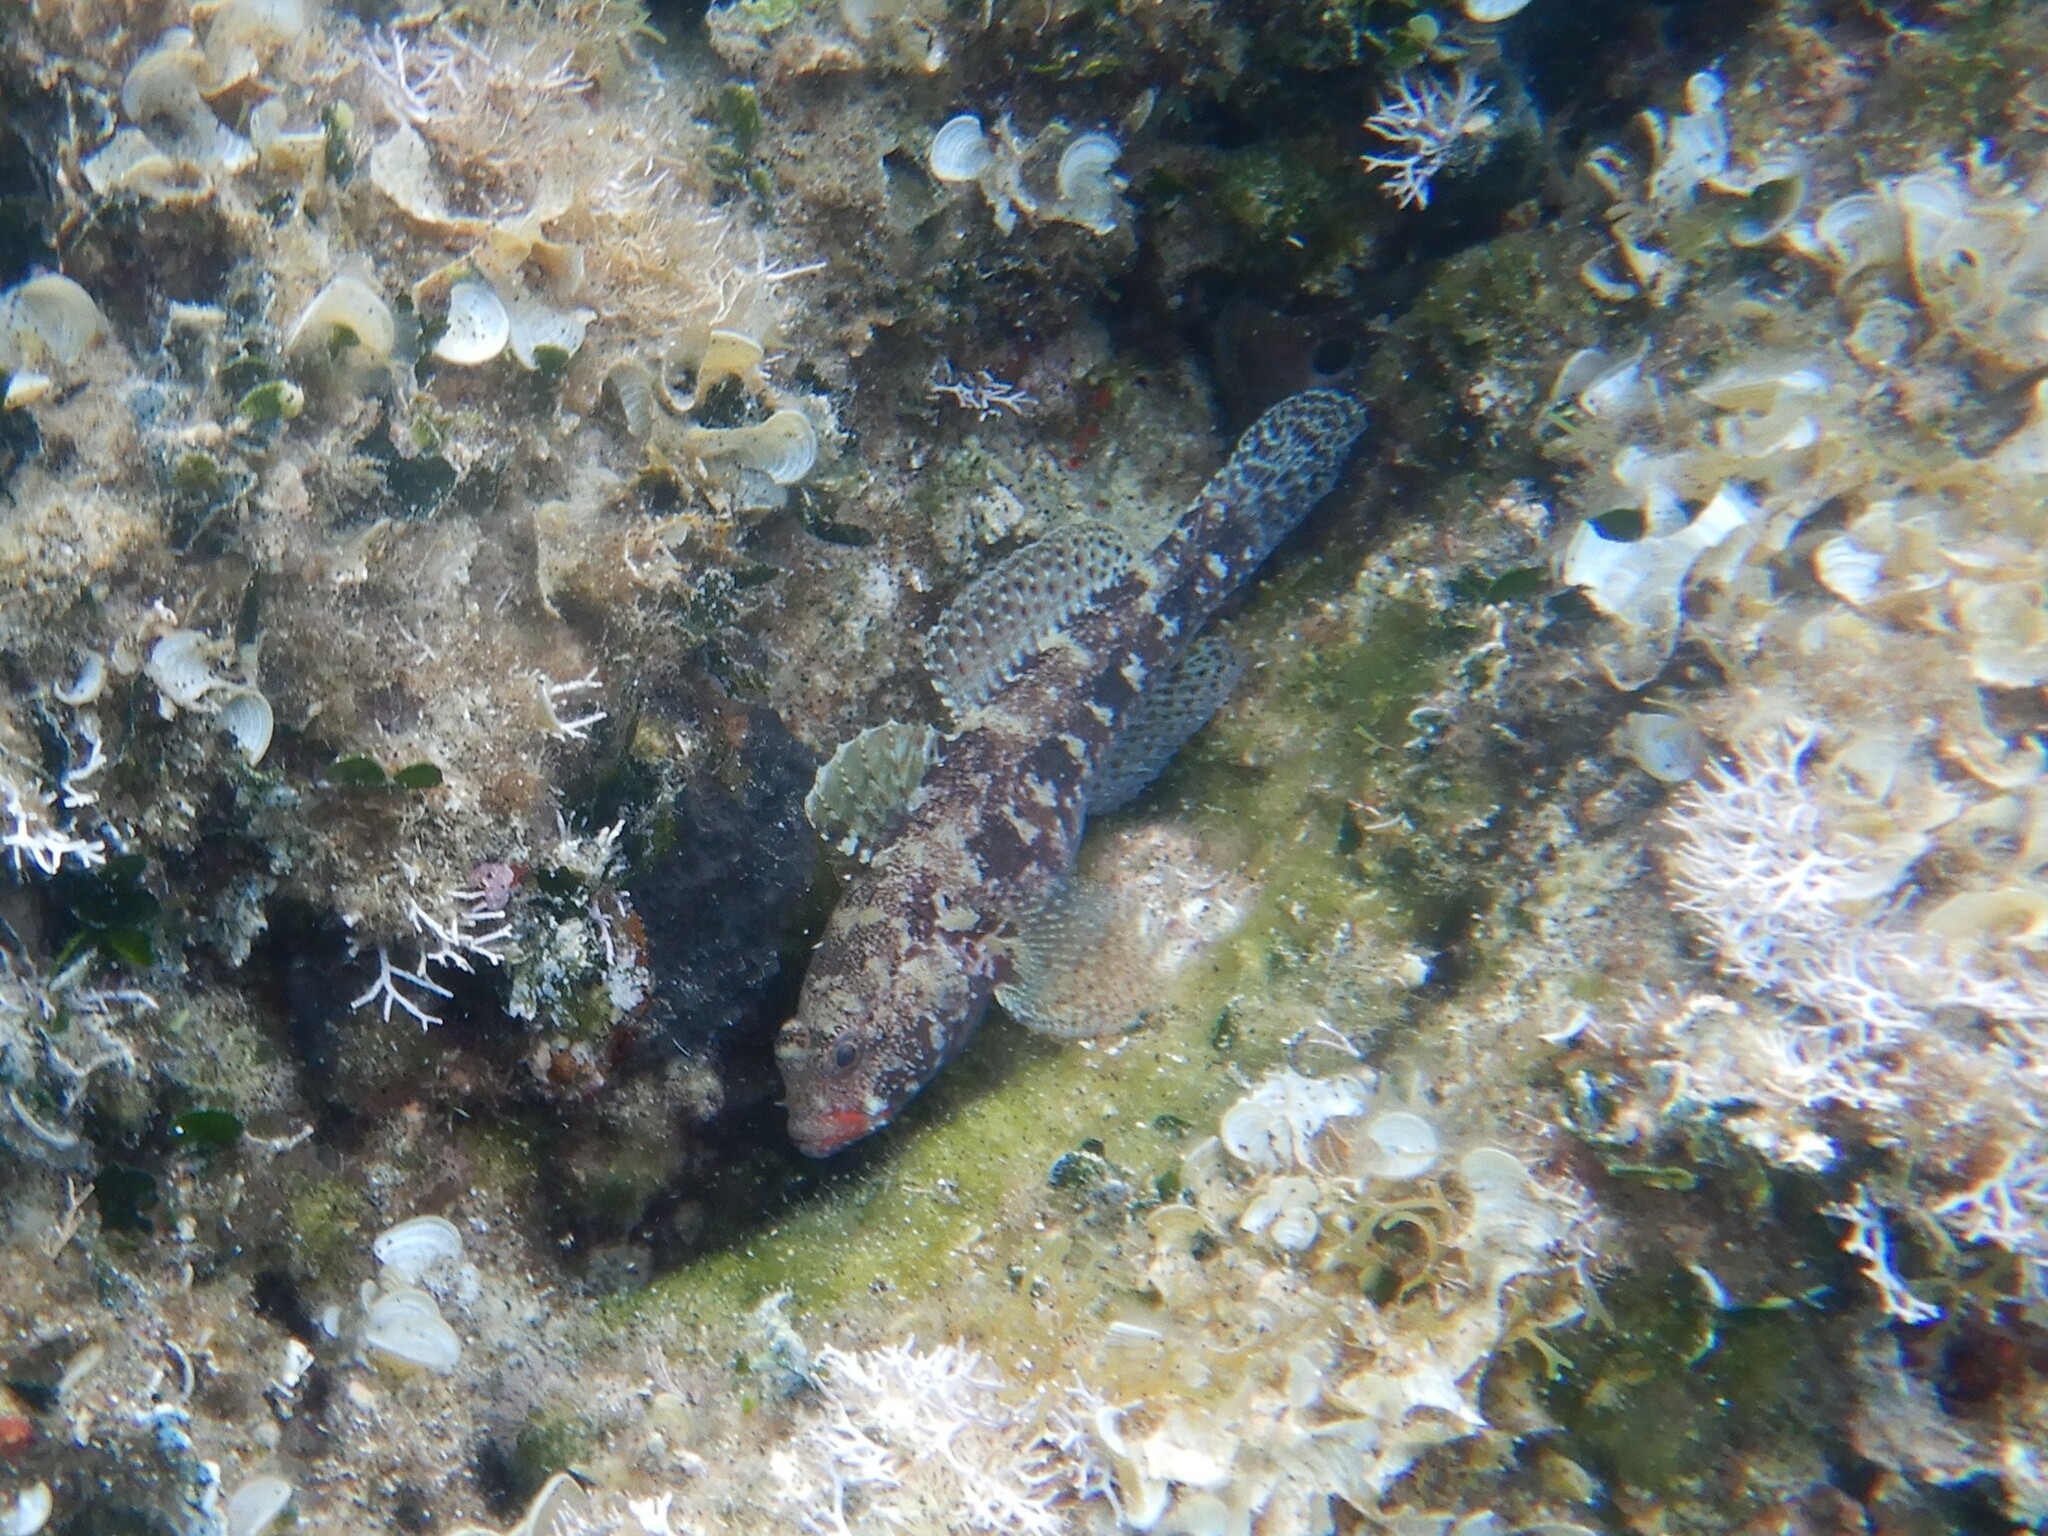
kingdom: Animalia
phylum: Chordata
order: Perciformes
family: Gobiidae
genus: Gobius
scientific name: Gobius cruentatus
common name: Red-mouthed goby
